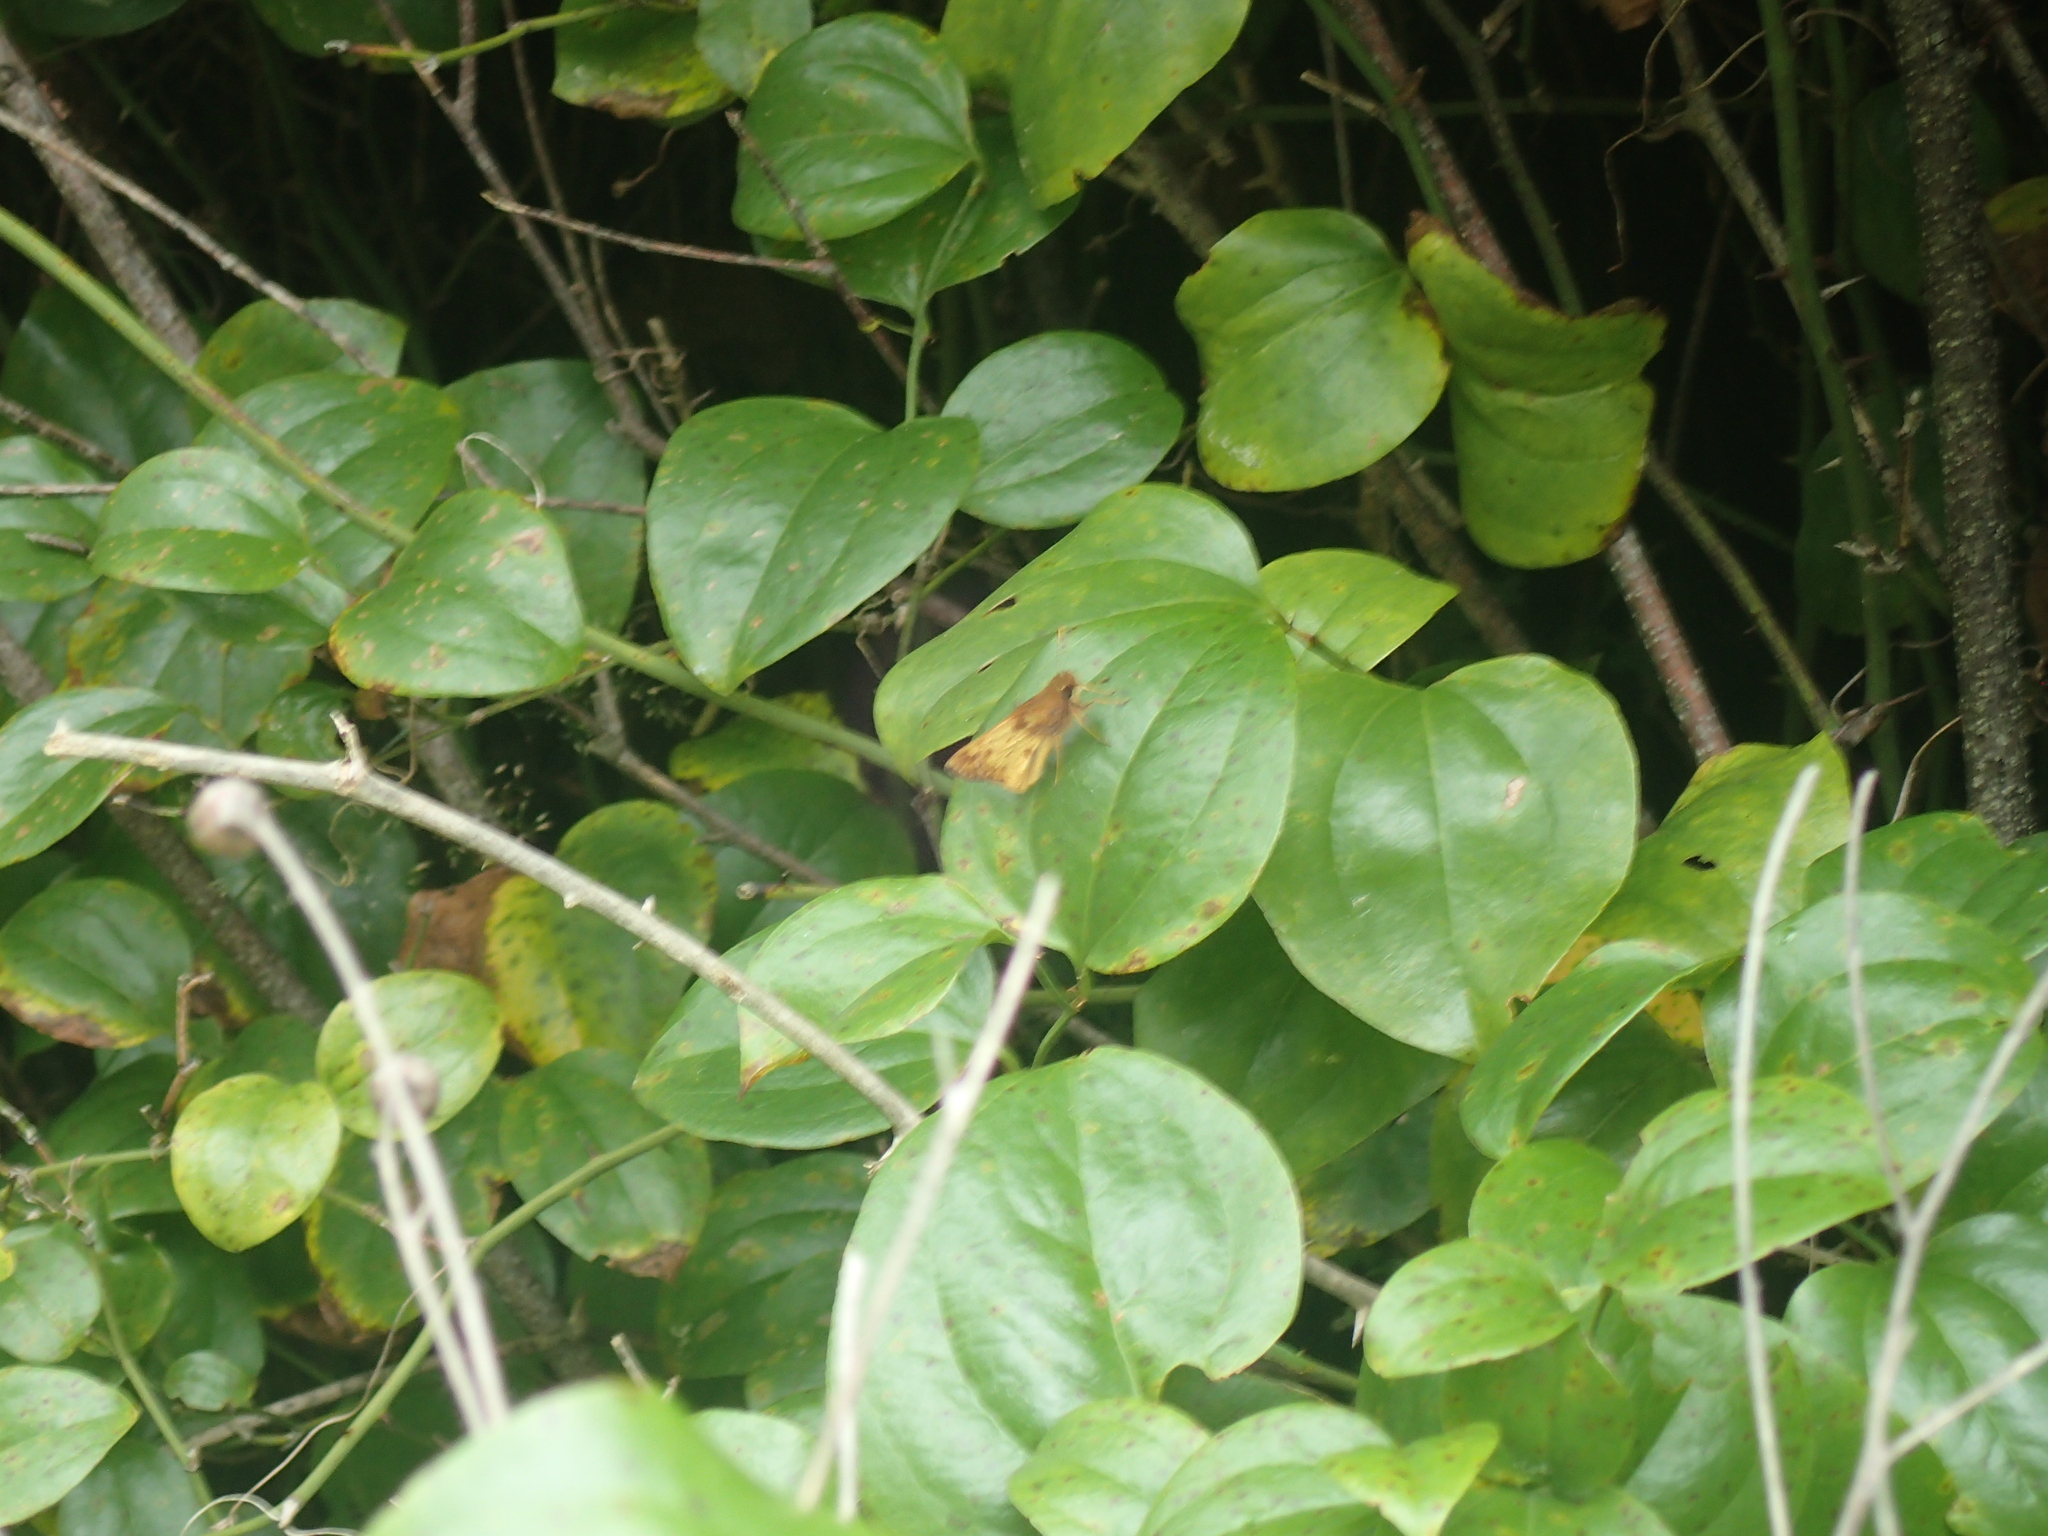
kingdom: Animalia
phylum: Arthropoda
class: Insecta
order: Lepidoptera
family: Hesperiidae
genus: Lon
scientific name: Lon zabulon
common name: Zabulon skipper
